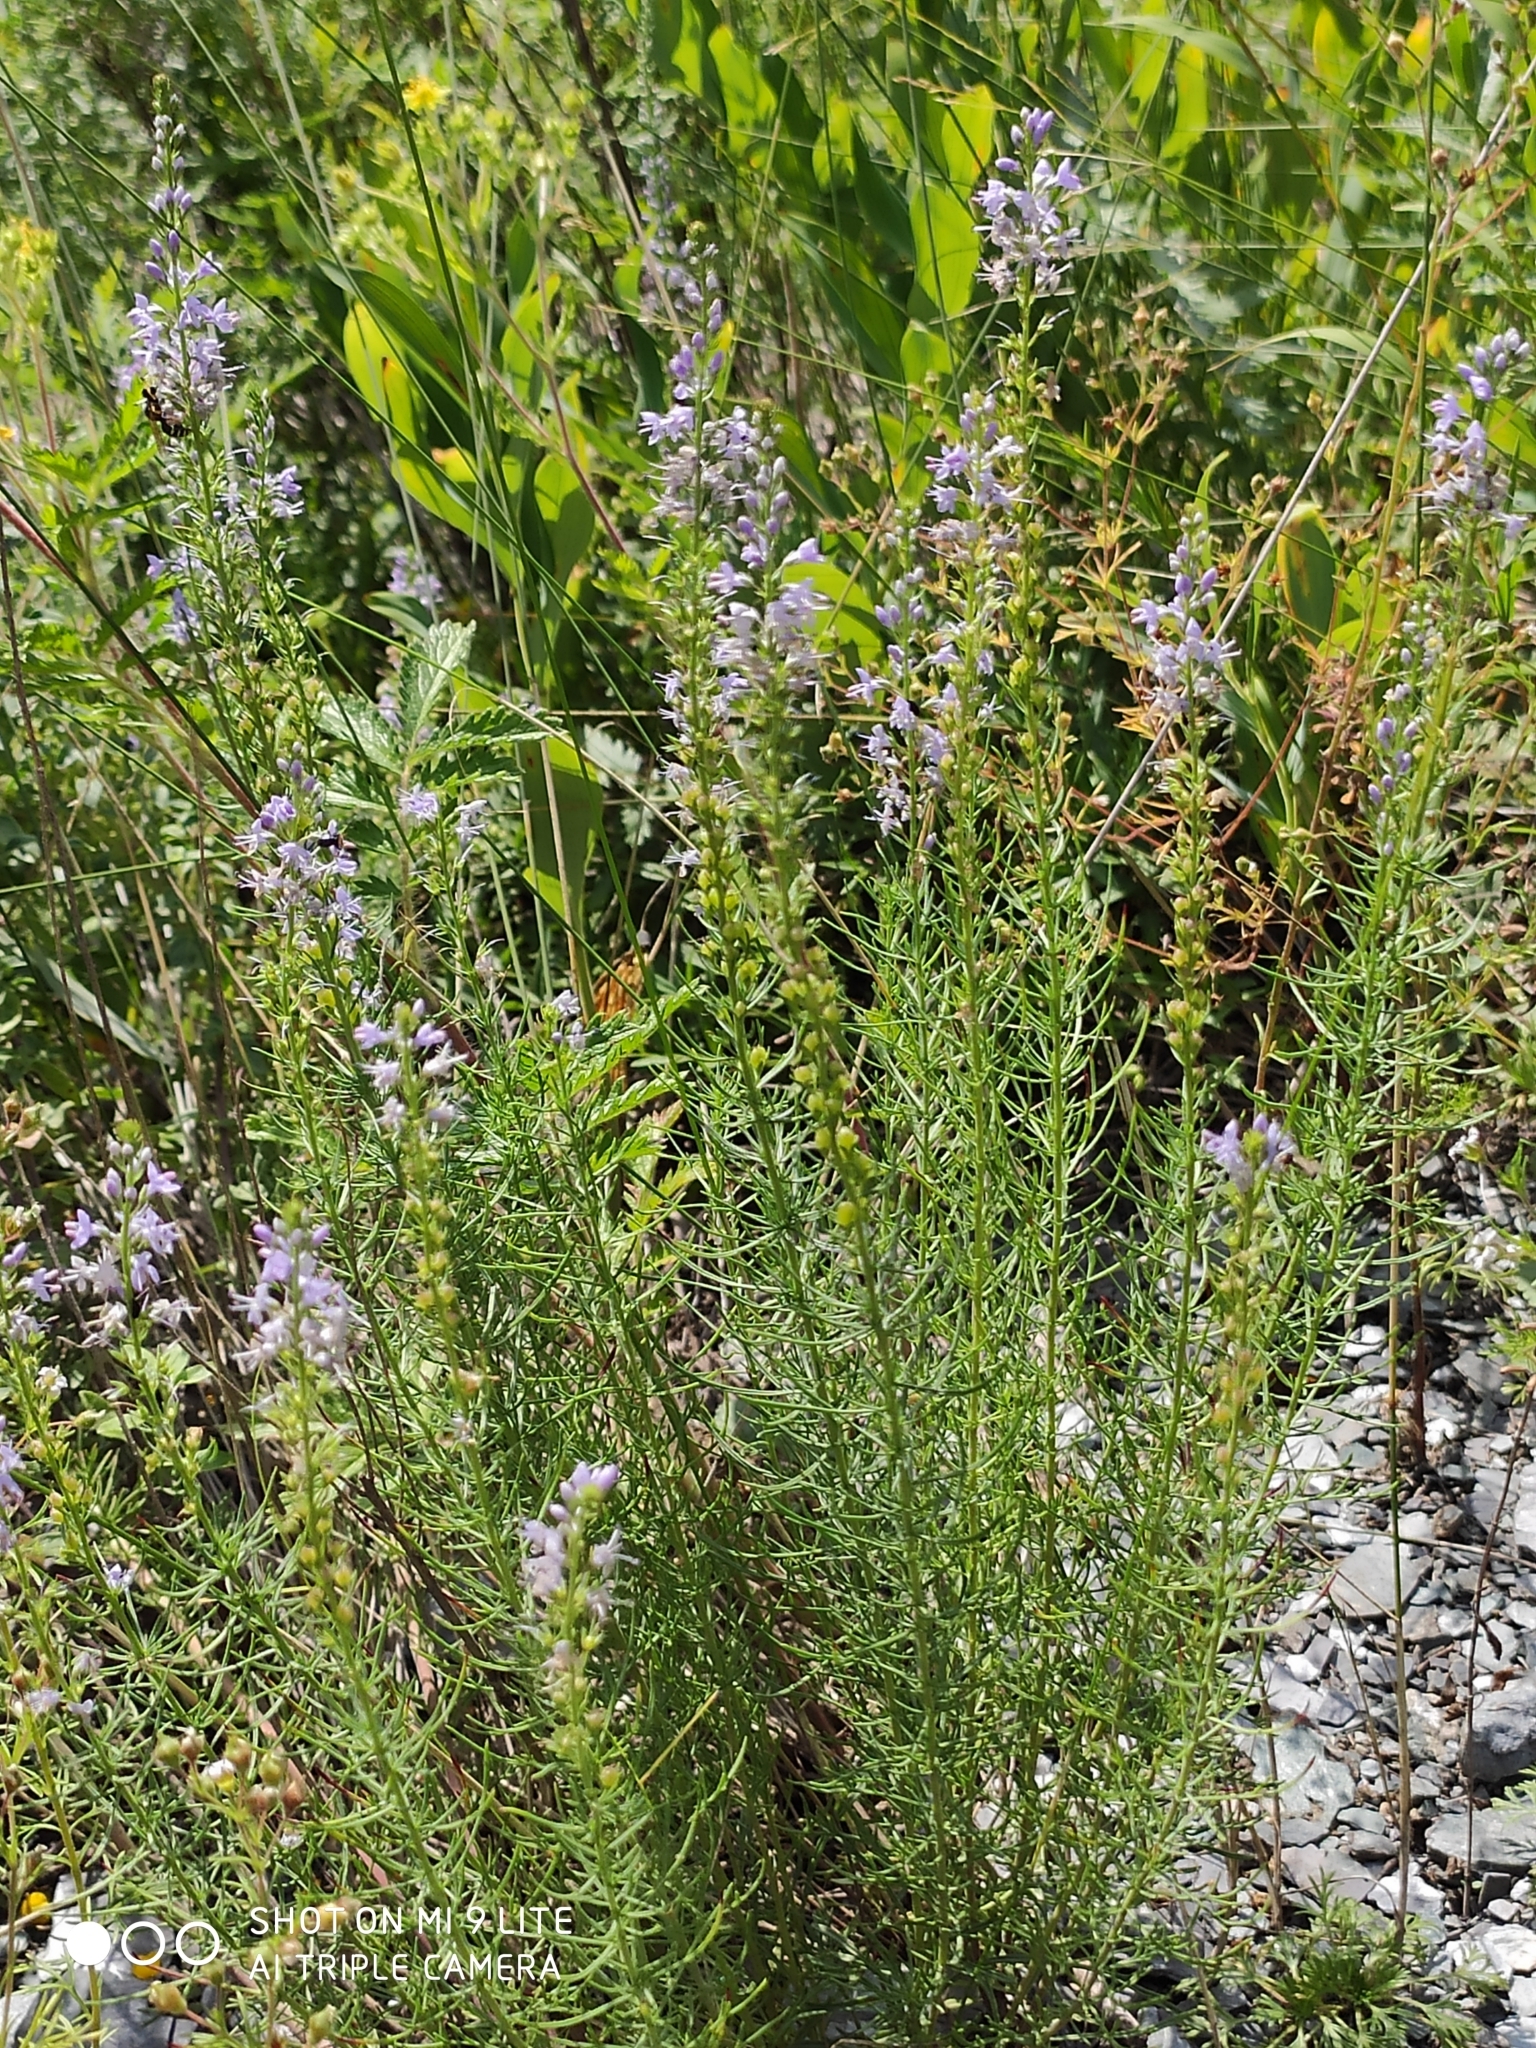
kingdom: Plantae
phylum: Tracheophyta
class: Magnoliopsida
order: Lamiales
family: Plantaginaceae
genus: Veronica
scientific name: Veronica pinnata
